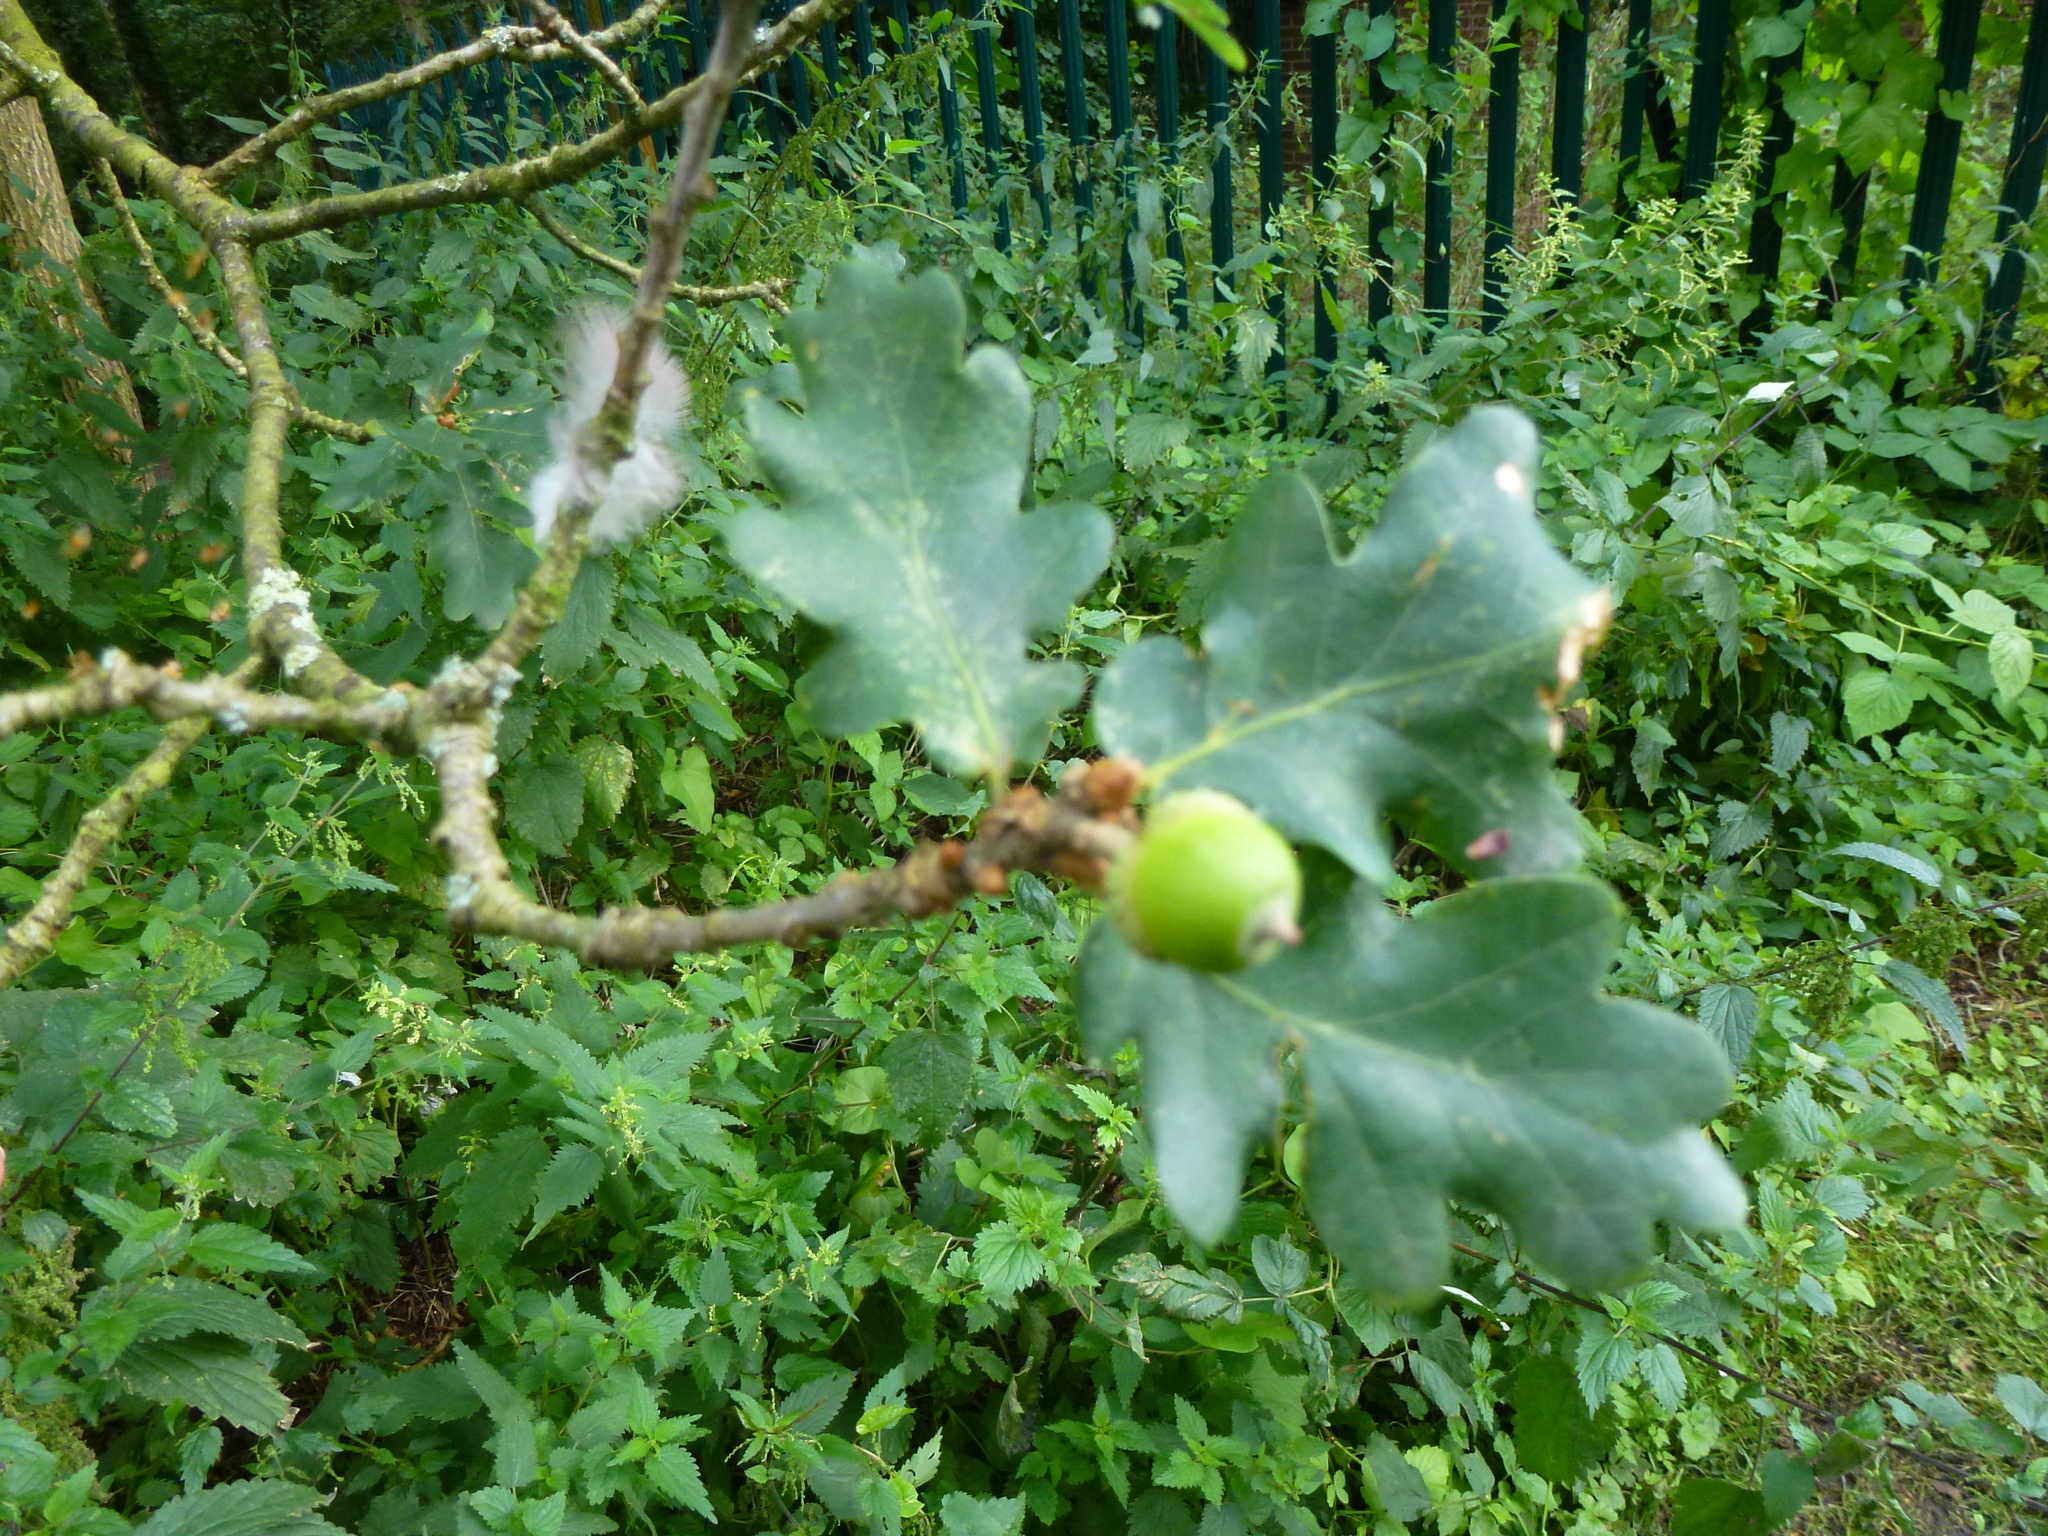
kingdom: Plantae
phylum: Tracheophyta
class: Magnoliopsida
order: Fagales
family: Fagaceae
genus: Quercus
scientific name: Quercus robur
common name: Pedunculate oak
